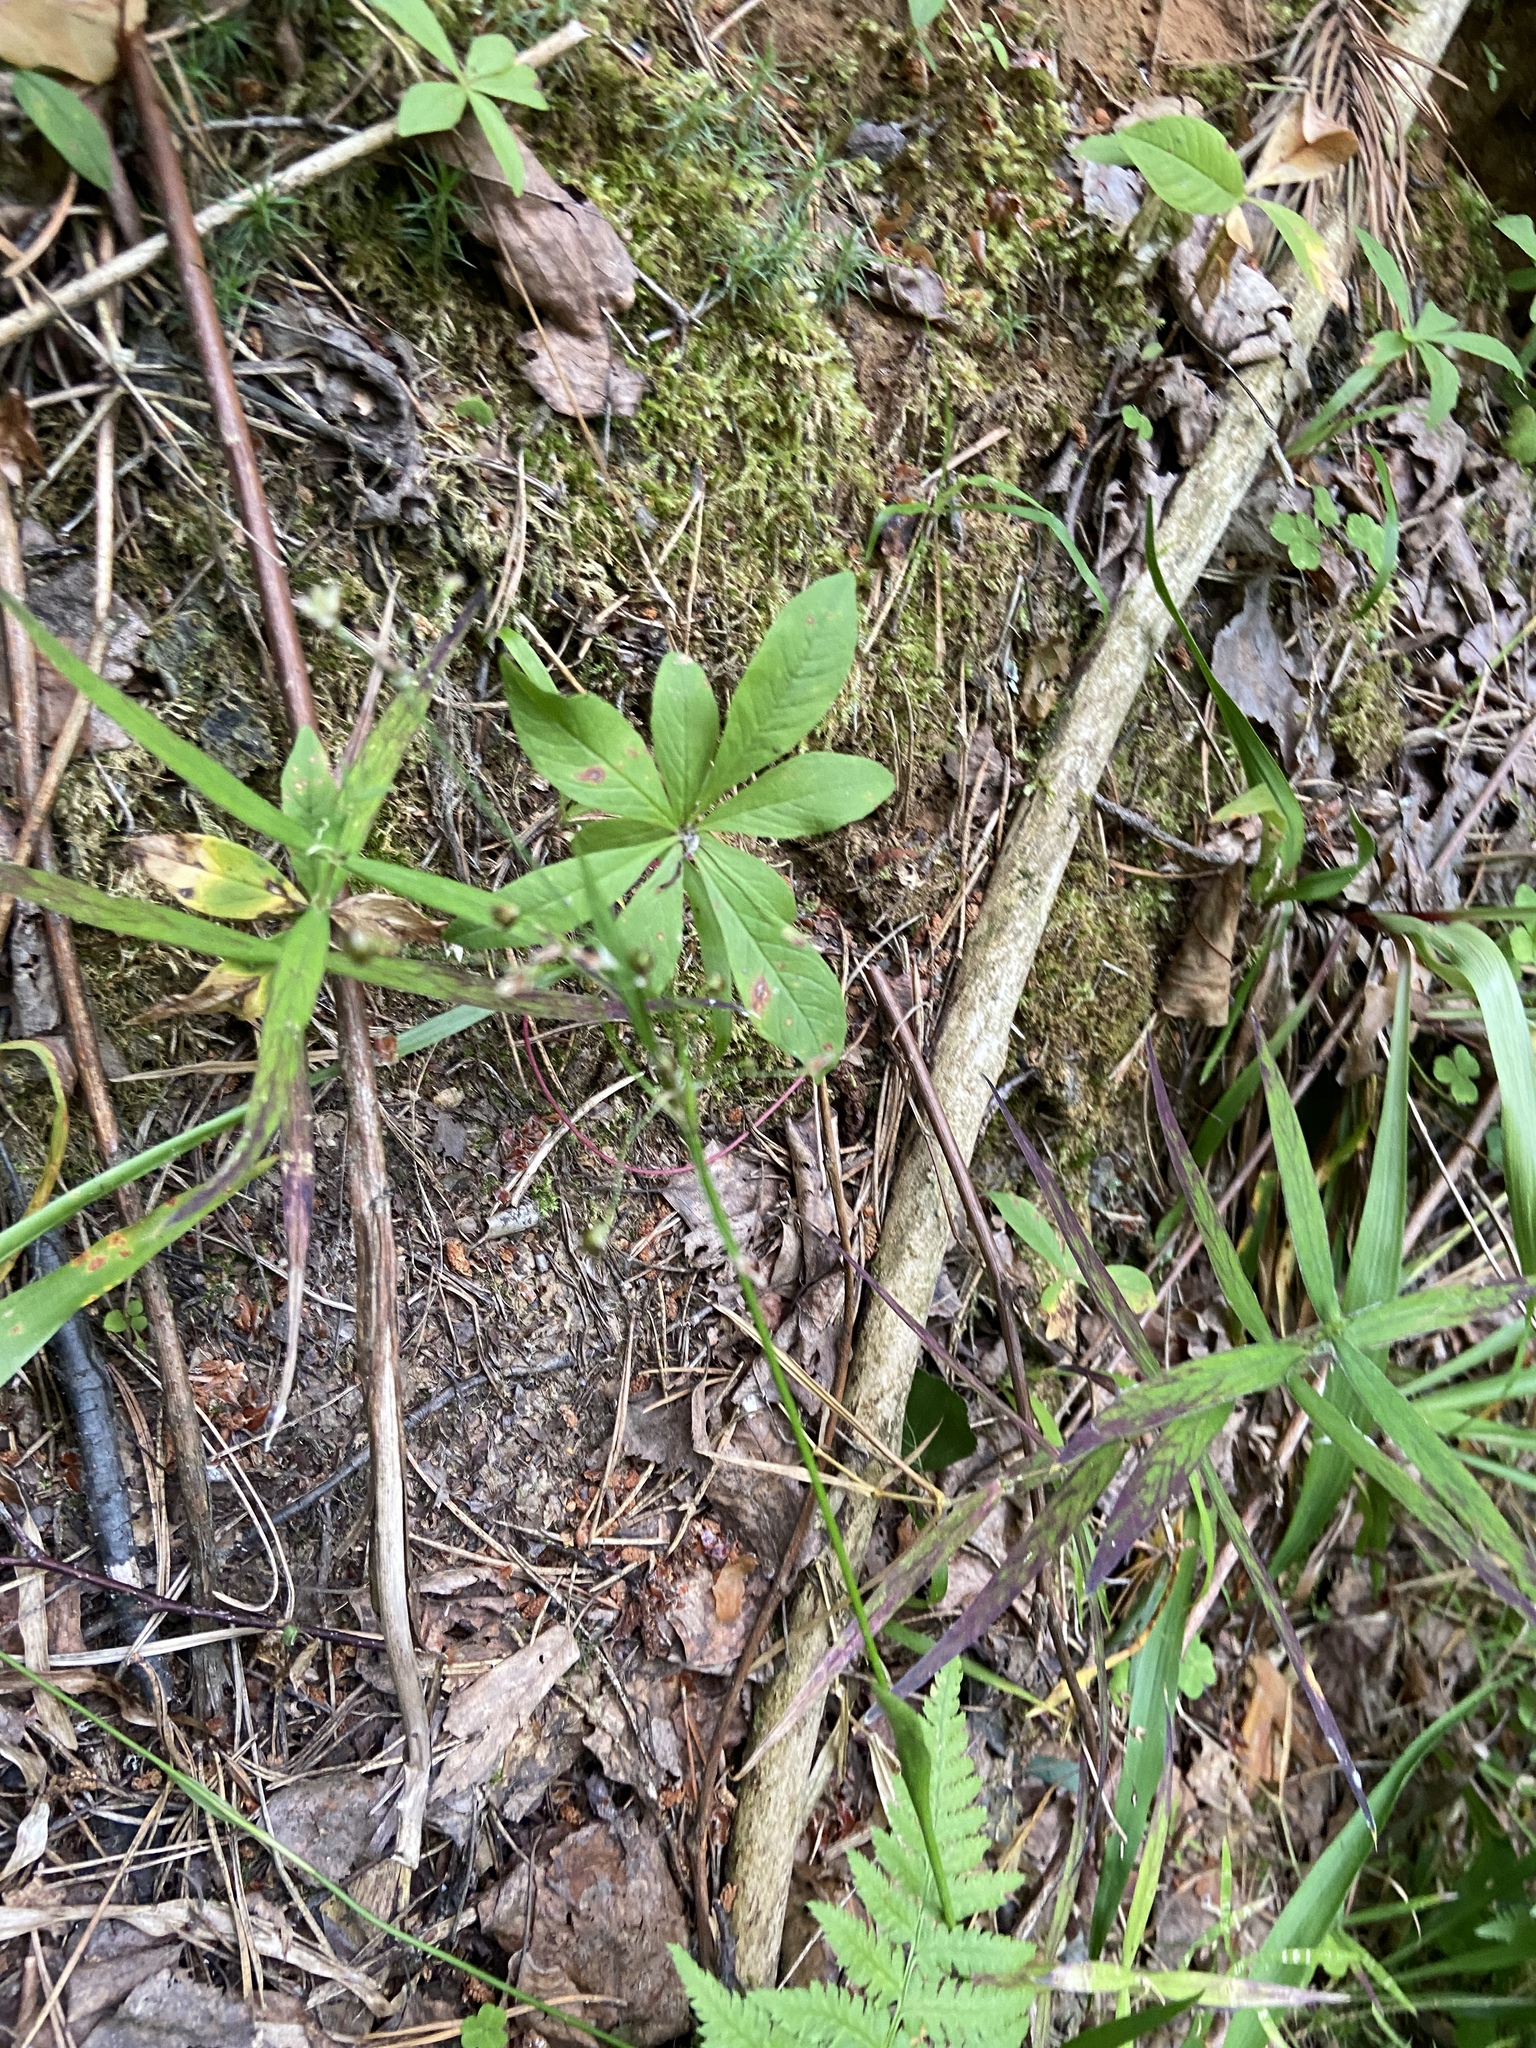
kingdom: Plantae
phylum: Tracheophyta
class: Magnoliopsida
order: Ericales
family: Primulaceae
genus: Lysimachia
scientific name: Lysimachia europaea
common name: Arctic starflower
